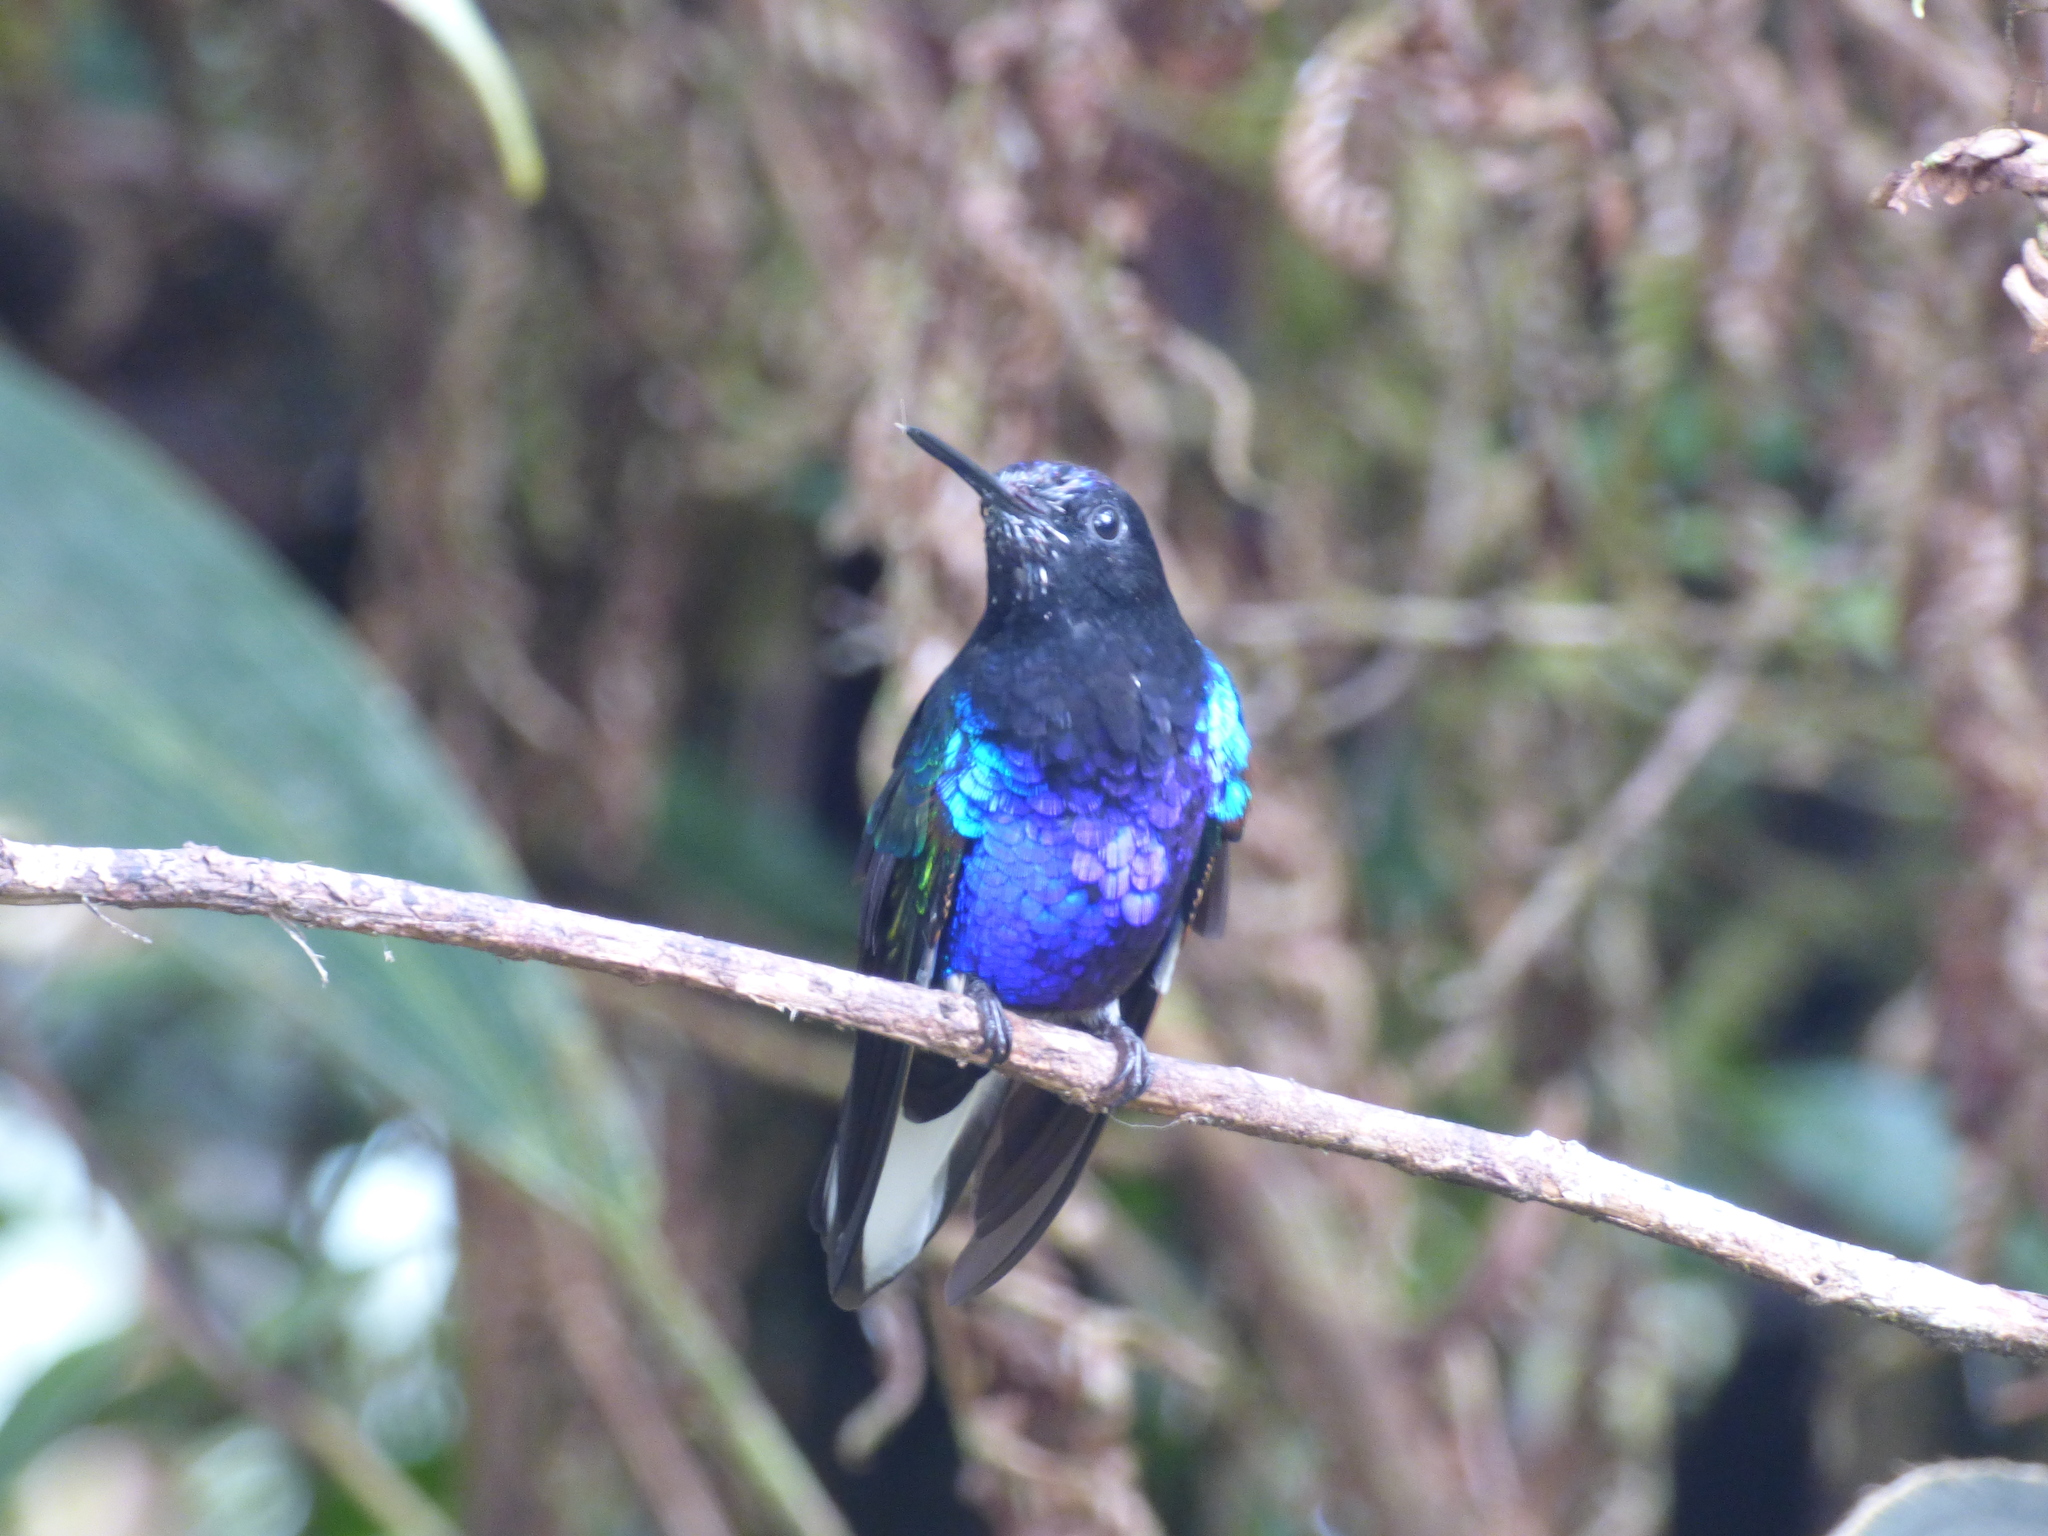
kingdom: Animalia
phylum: Chordata
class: Aves
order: Apodiformes
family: Trochilidae
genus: Boissonneaua
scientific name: Boissonneaua jardini
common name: Velvet-purple coronet
